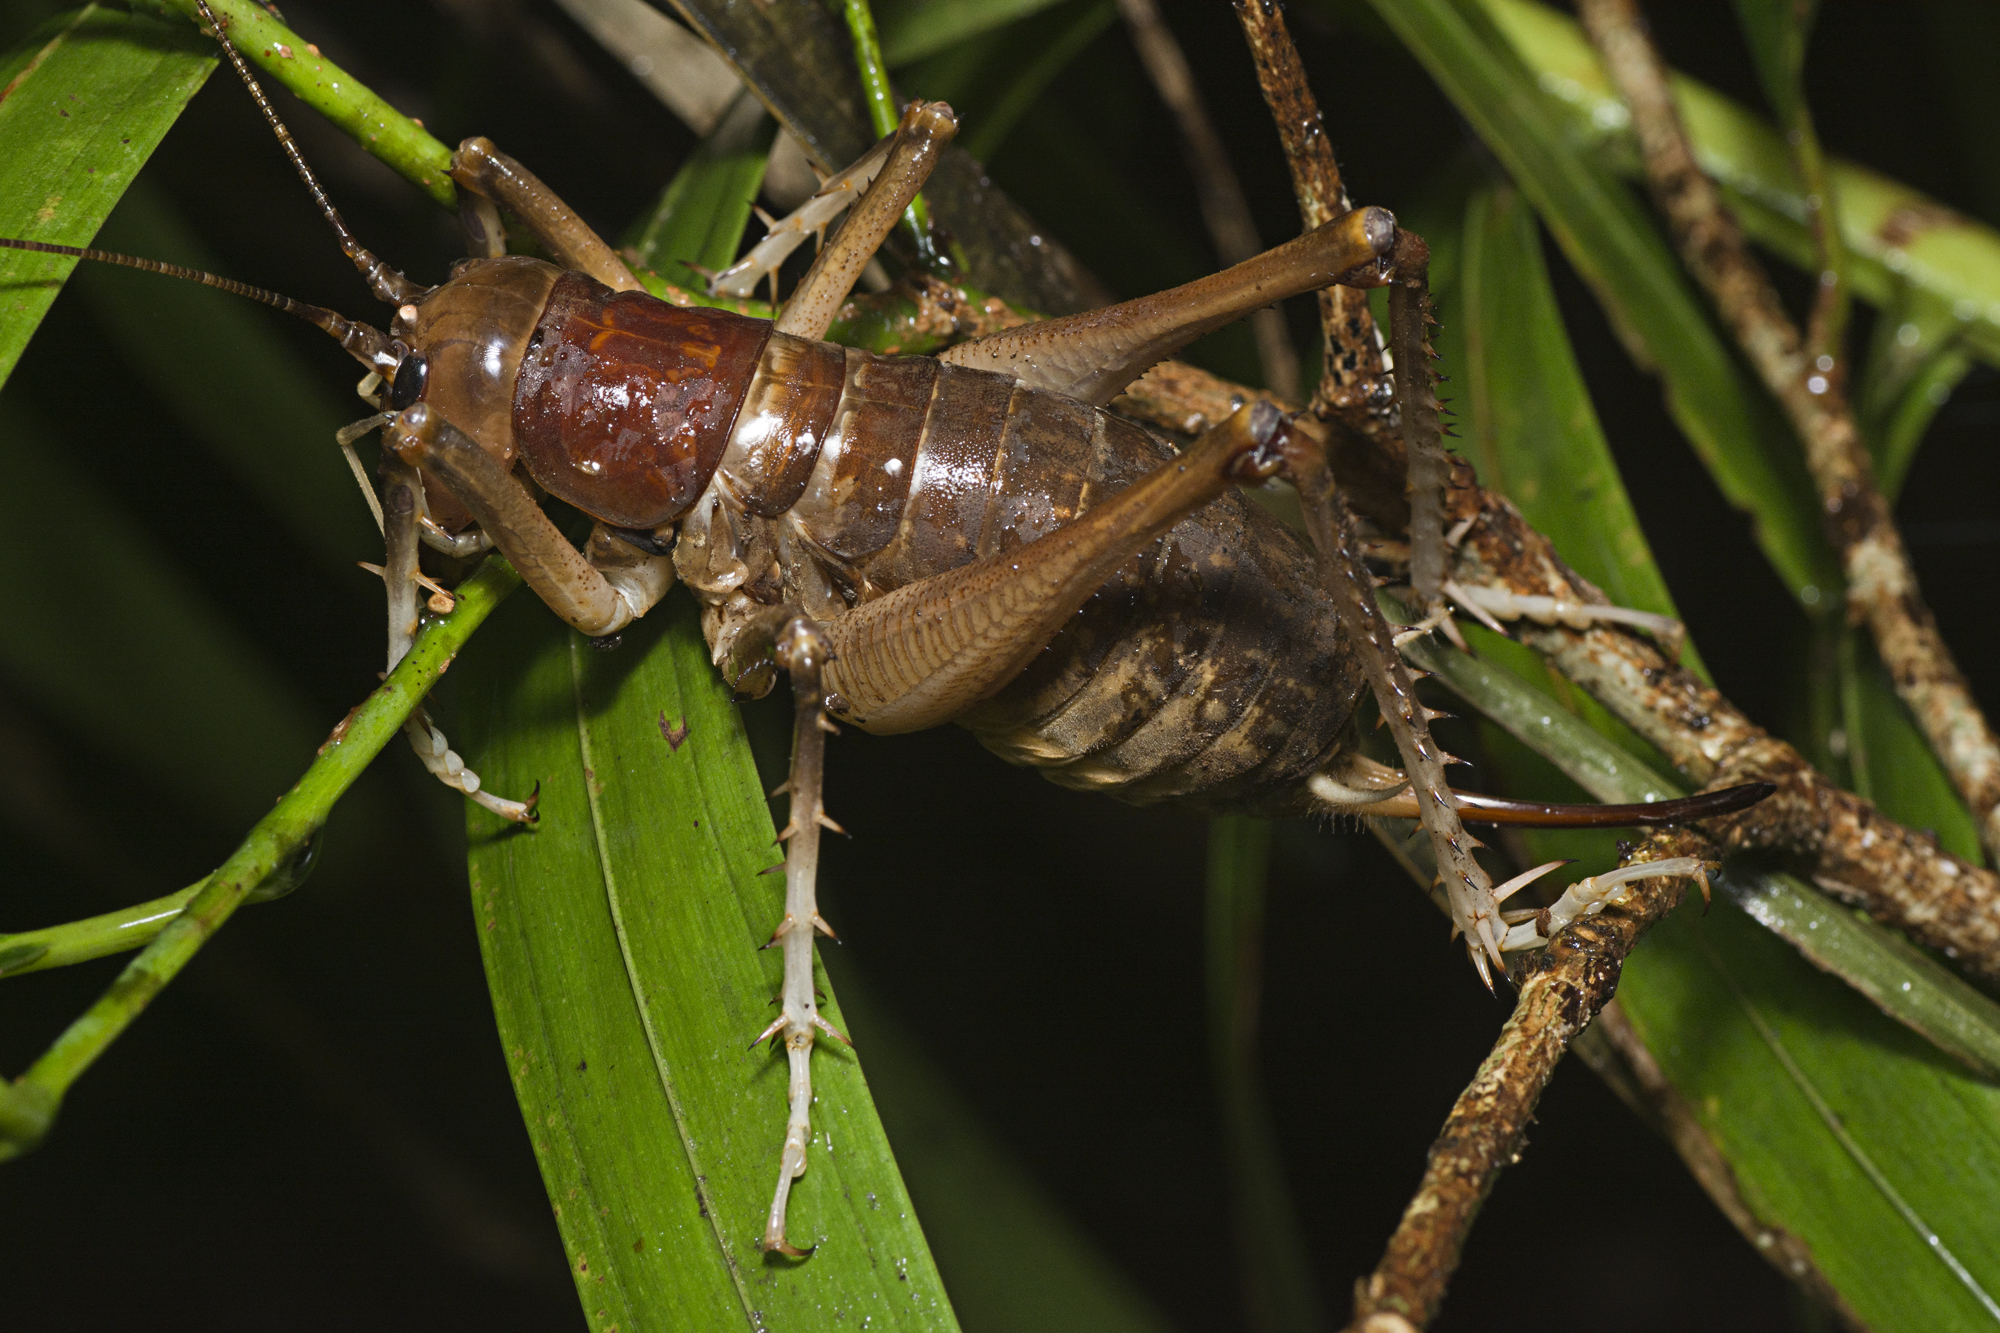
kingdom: Animalia
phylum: Arthropoda
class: Insecta
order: Orthoptera
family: Anostostomatidae
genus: Anostostoma
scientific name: Anostostoma australasiae
